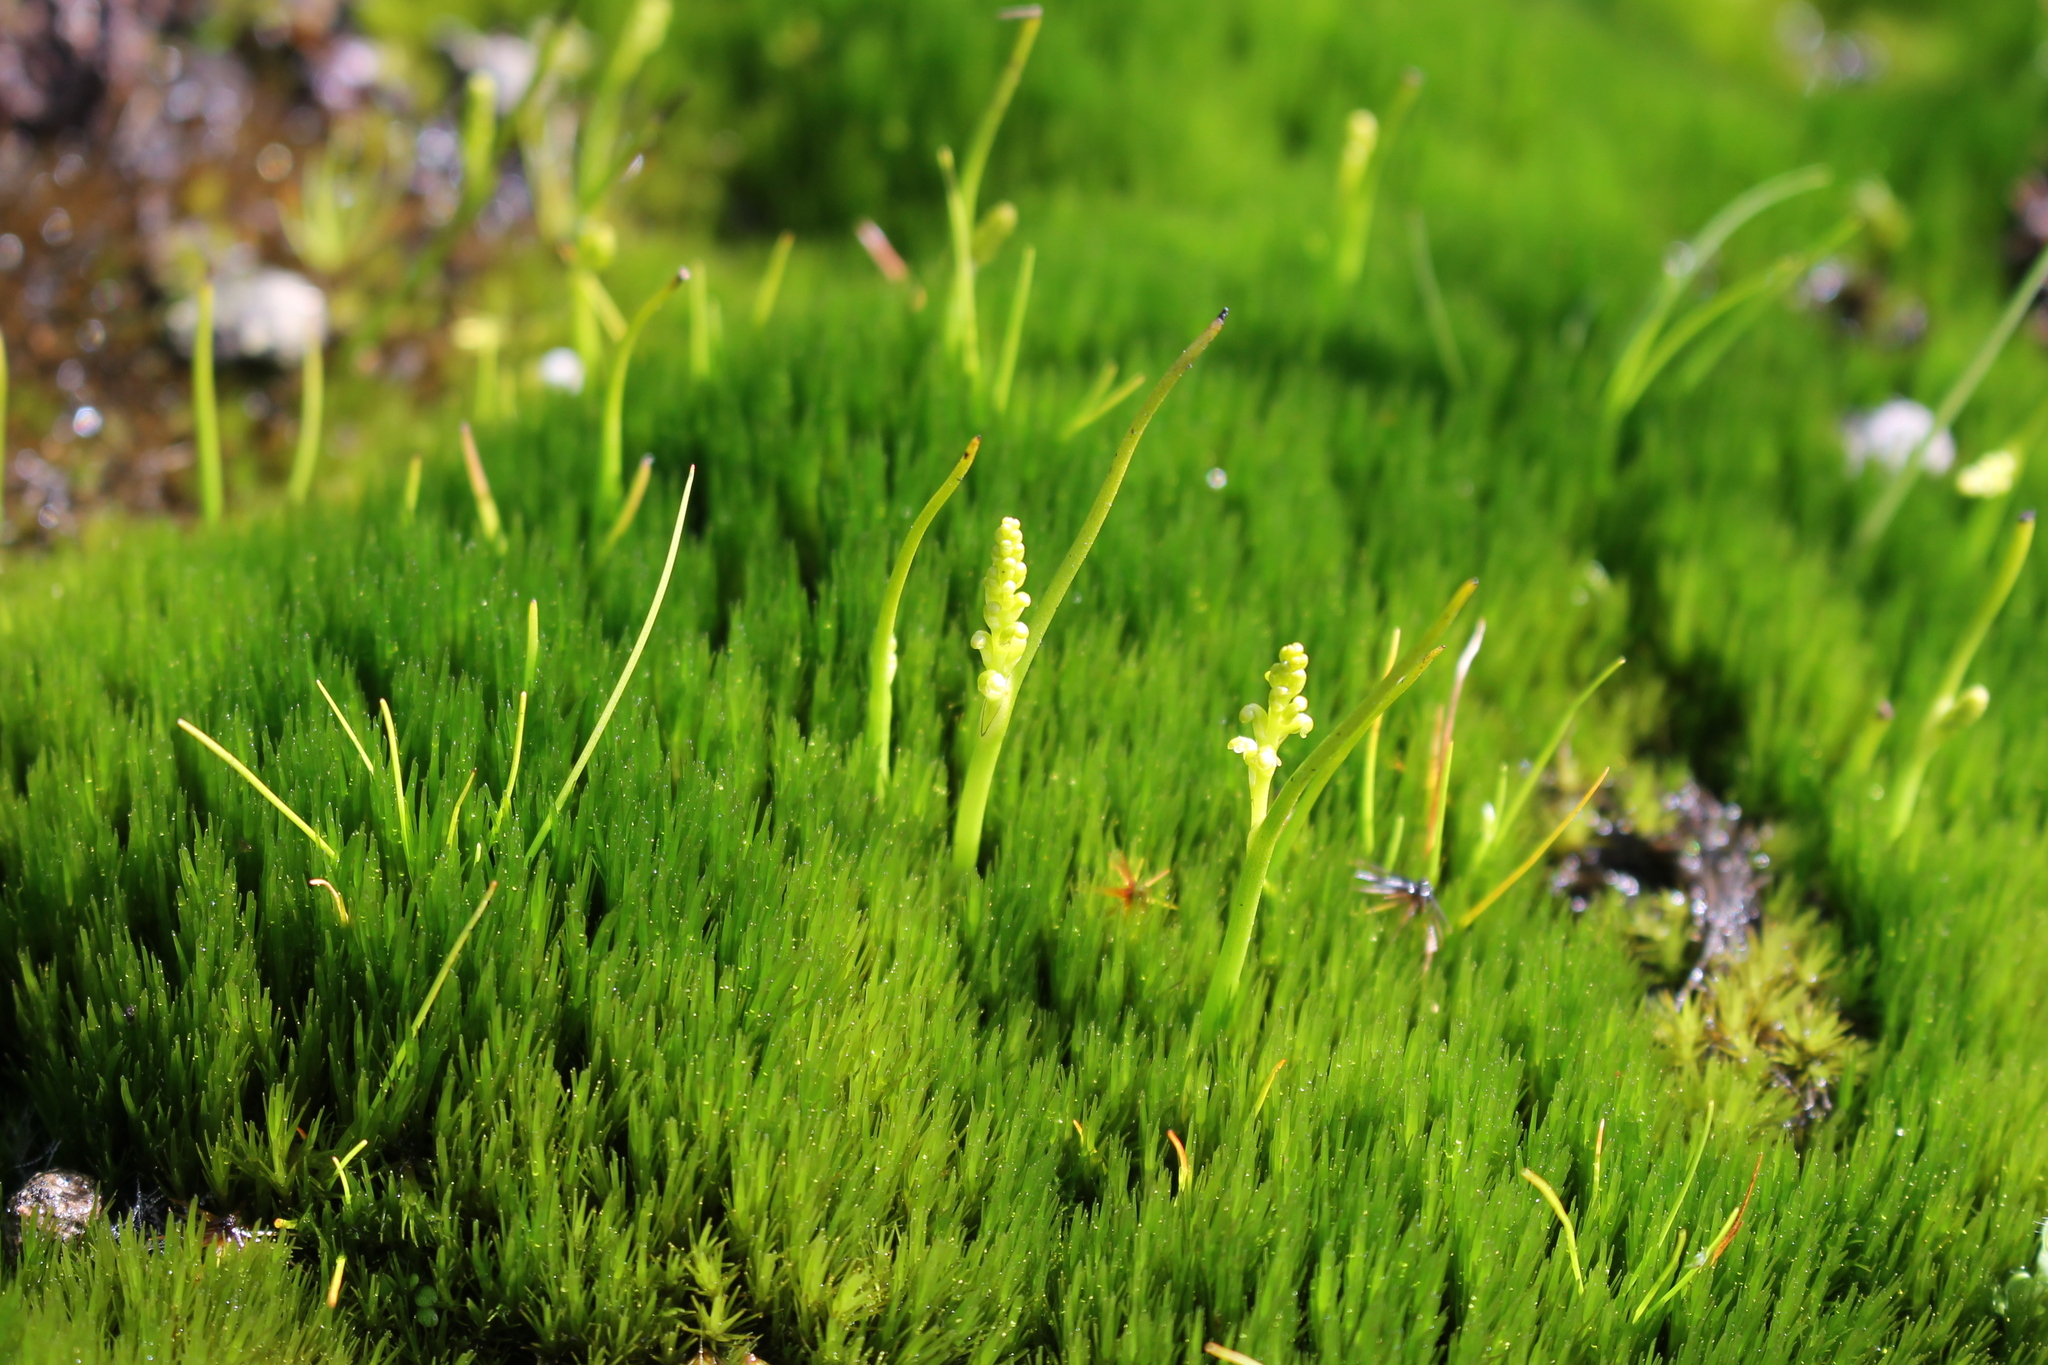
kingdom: Plantae
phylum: Tracheophyta
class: Liliopsida
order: Asparagales
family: Orchidaceae
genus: Microtis
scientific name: Microtis atrata
